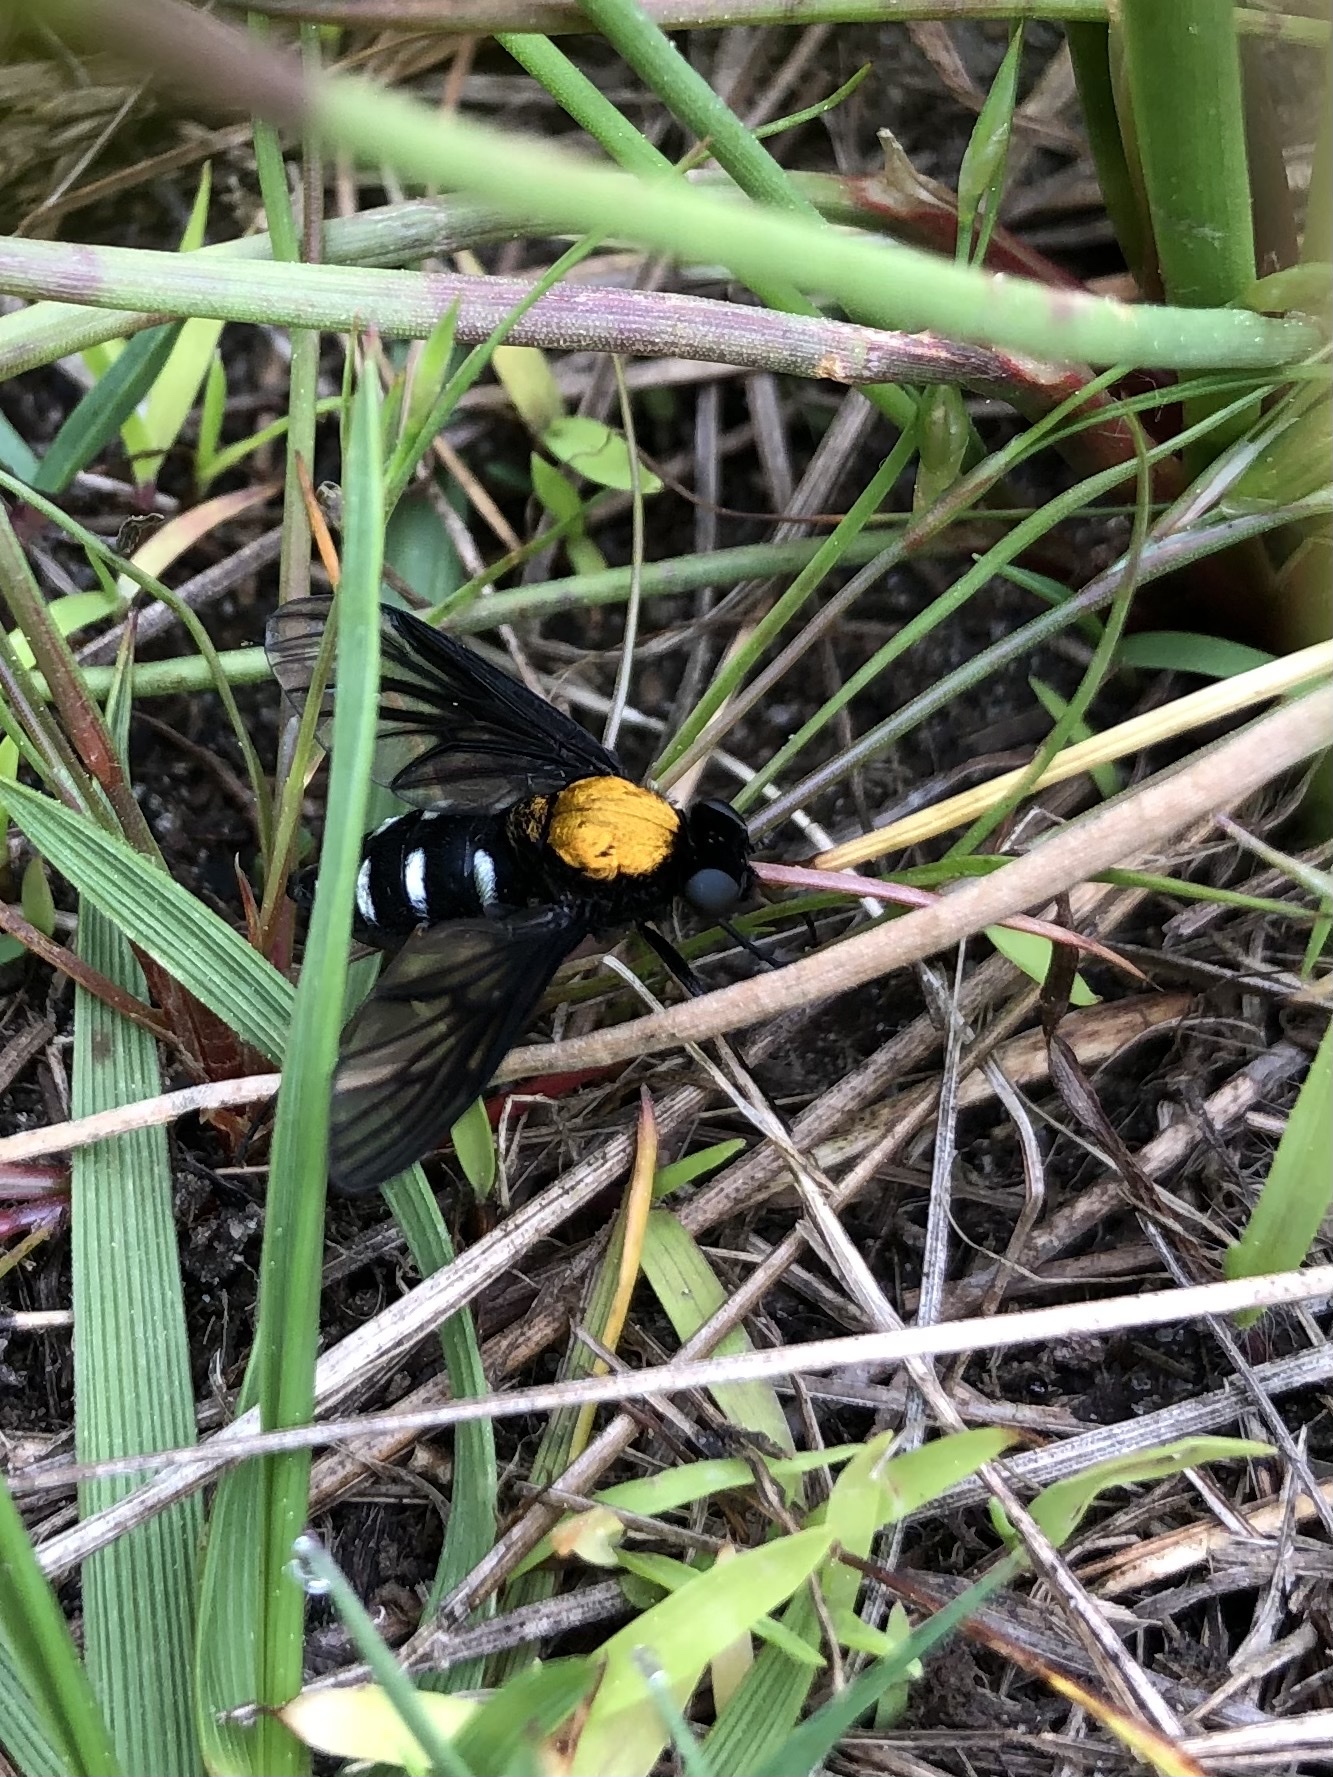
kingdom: Animalia
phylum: Arthropoda
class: Insecta
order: Diptera
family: Rhagionidae
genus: Chrysopilus
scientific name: Chrysopilus thoracicus
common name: Golden-backed snipe fly
